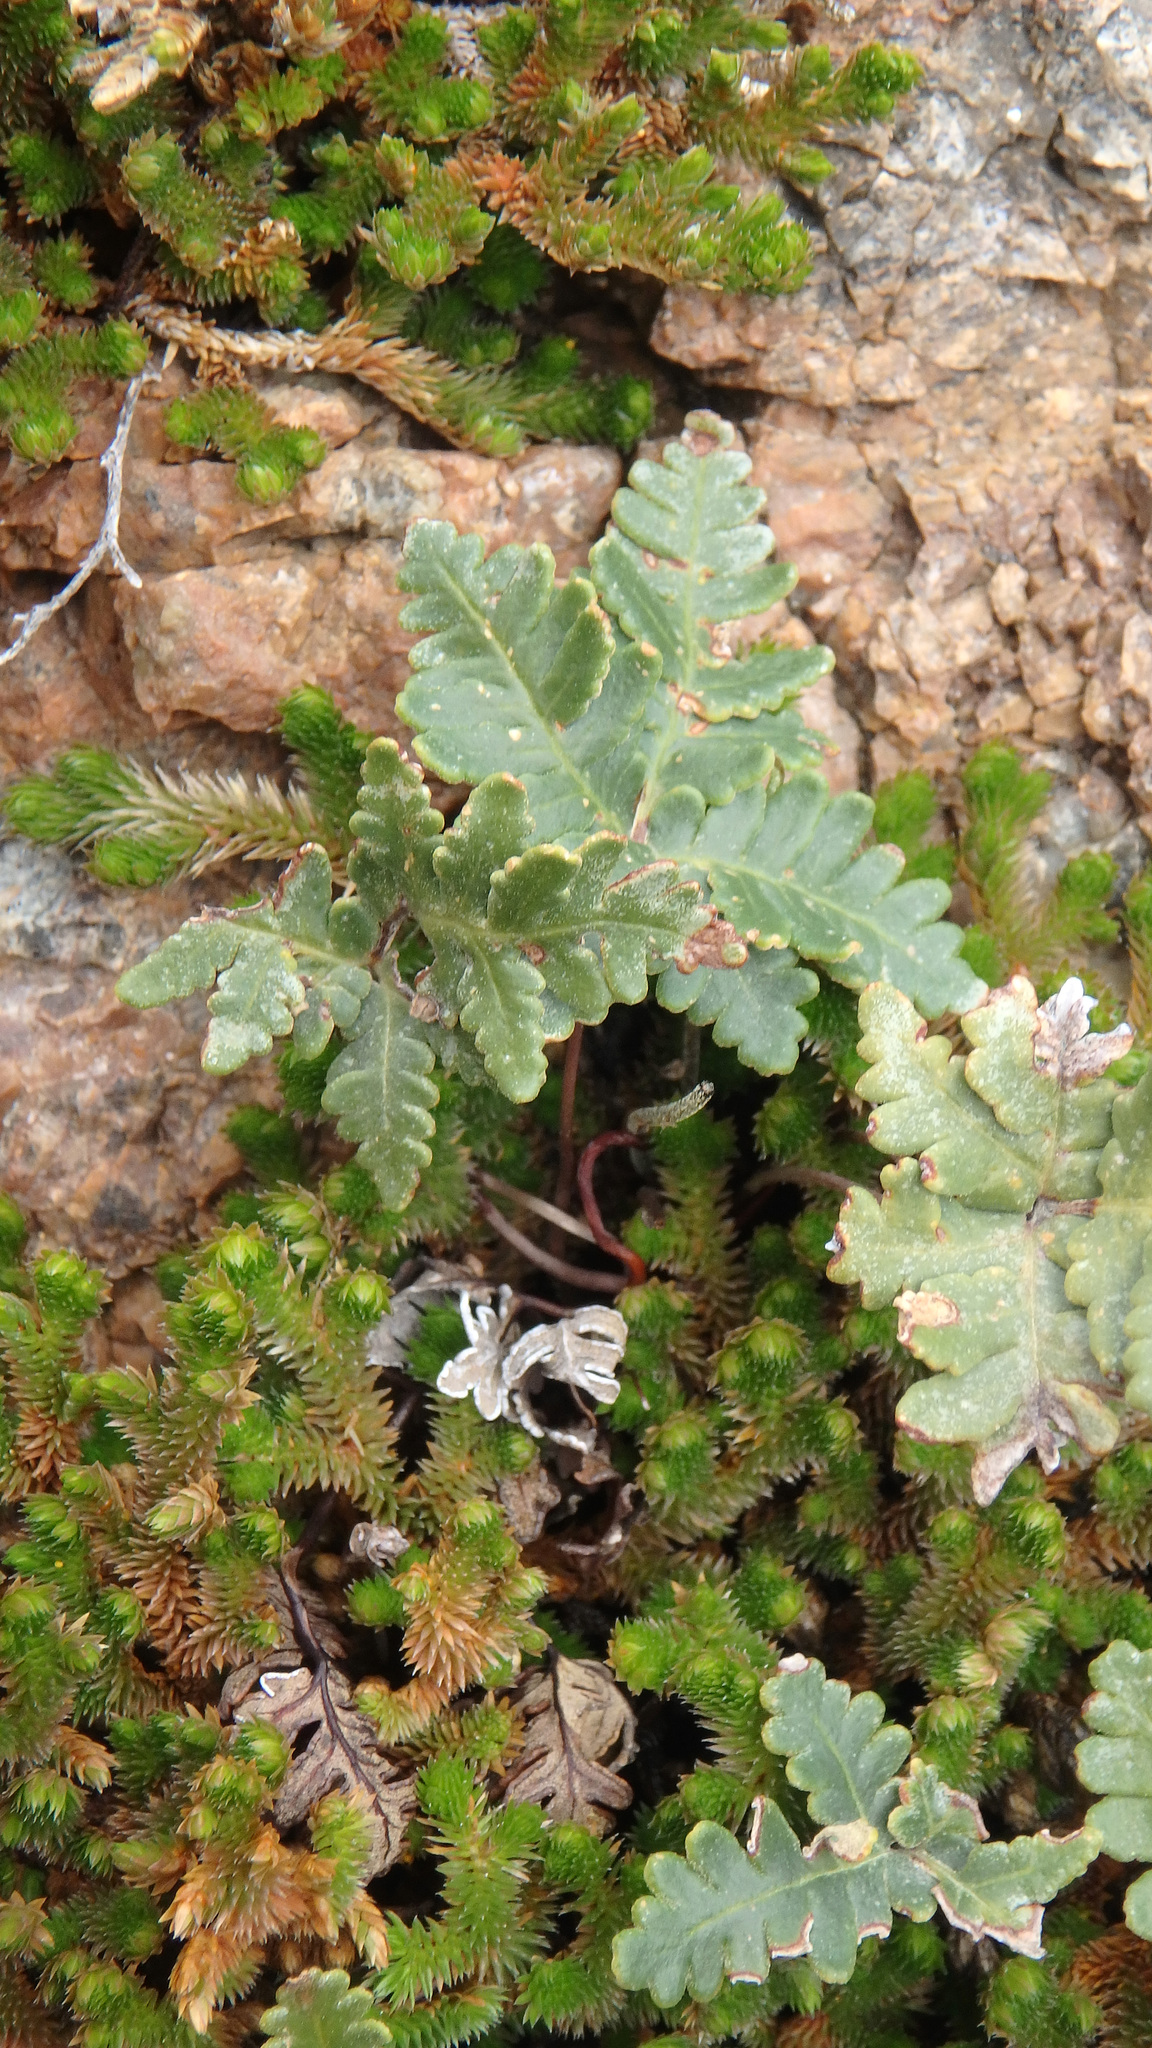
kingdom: Plantae
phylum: Tracheophyta
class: Polypodiopsida
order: Polypodiales
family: Pteridaceae
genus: Notholaena
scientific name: Notholaena standleyi
